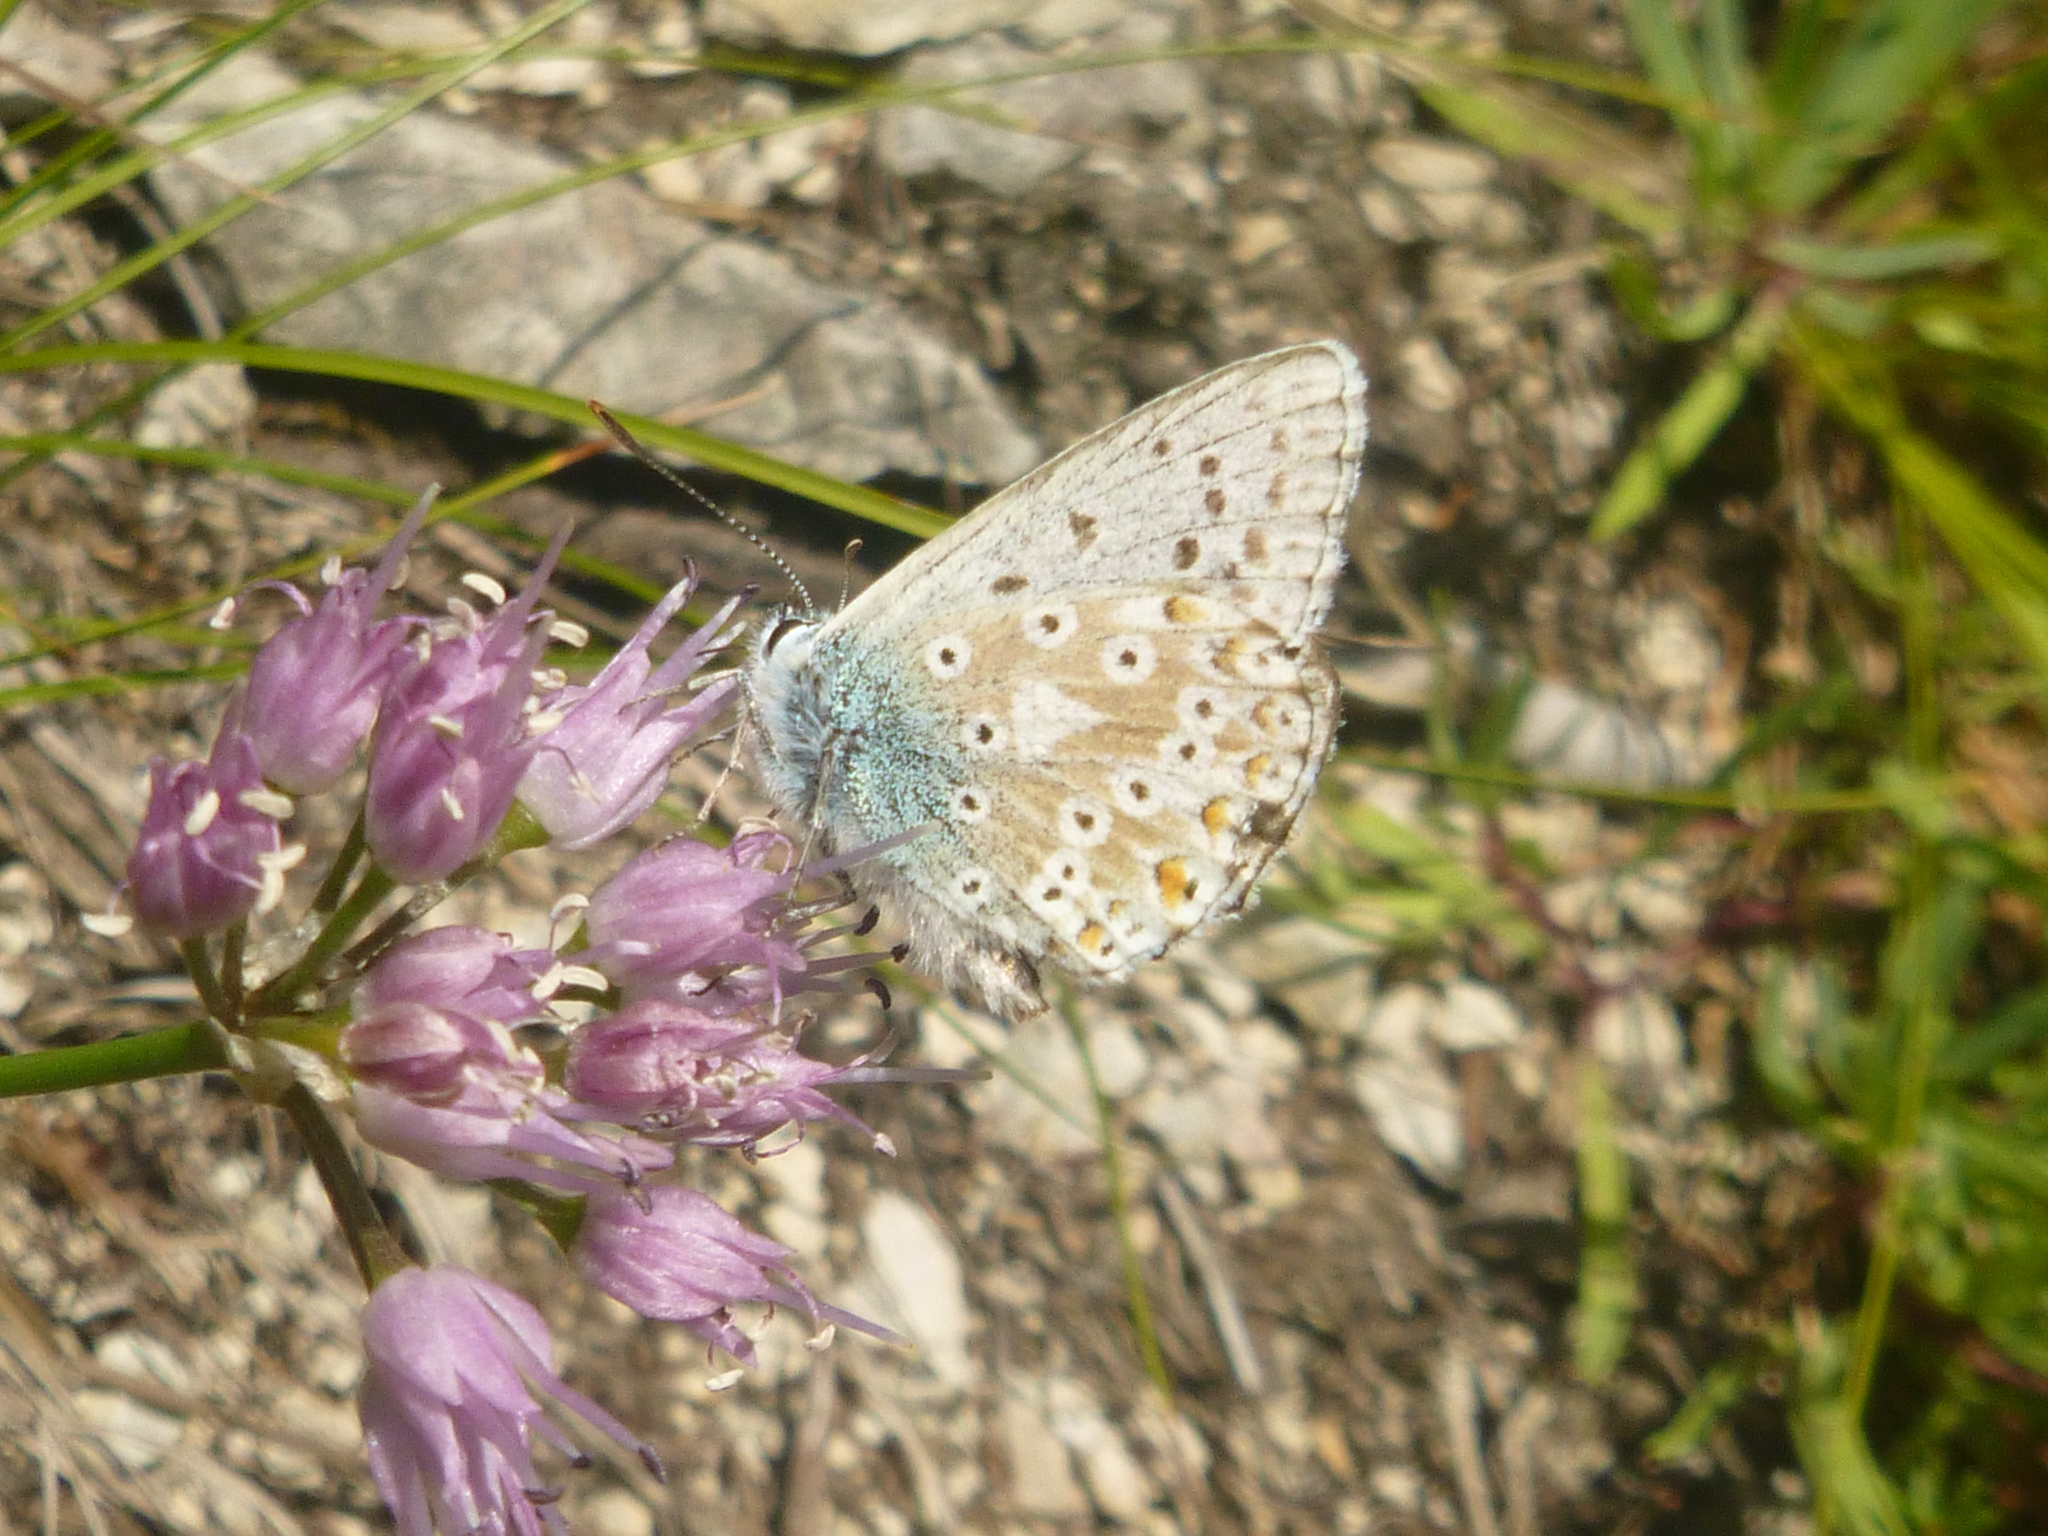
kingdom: Plantae
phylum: Tracheophyta
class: Liliopsida
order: Asparagales
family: Amaryllidaceae
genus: Allium
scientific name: Allium lusitanicum
